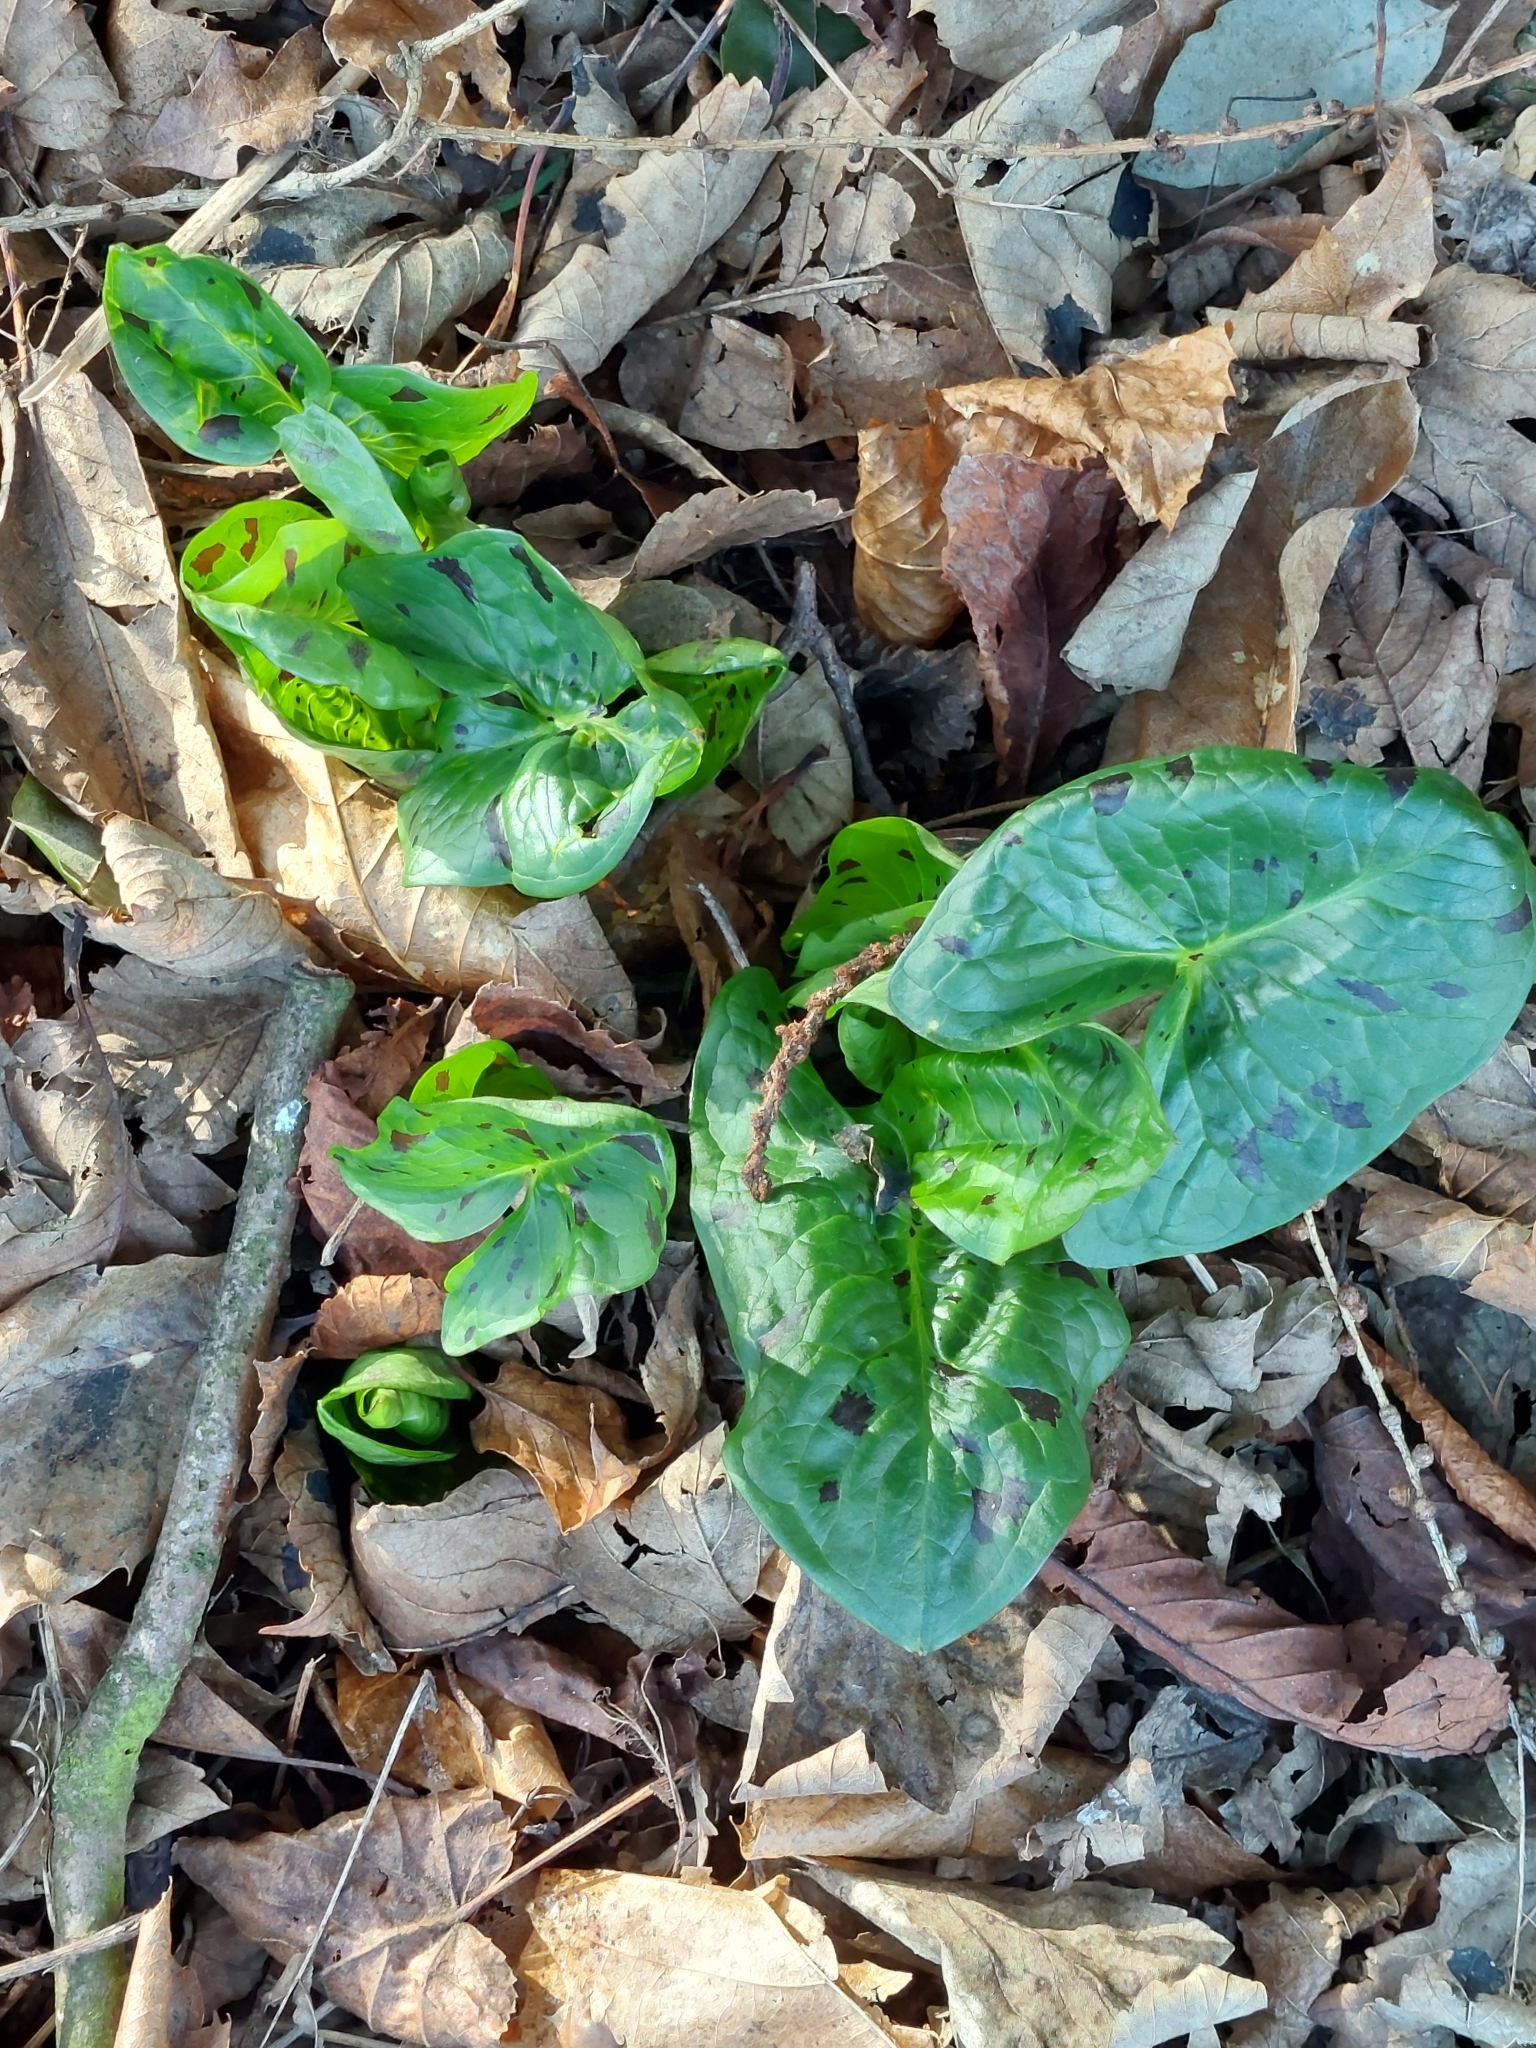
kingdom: Plantae
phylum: Tracheophyta
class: Liliopsida
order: Alismatales
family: Araceae
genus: Arum
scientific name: Arum maculatum
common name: Lords-and-ladies
